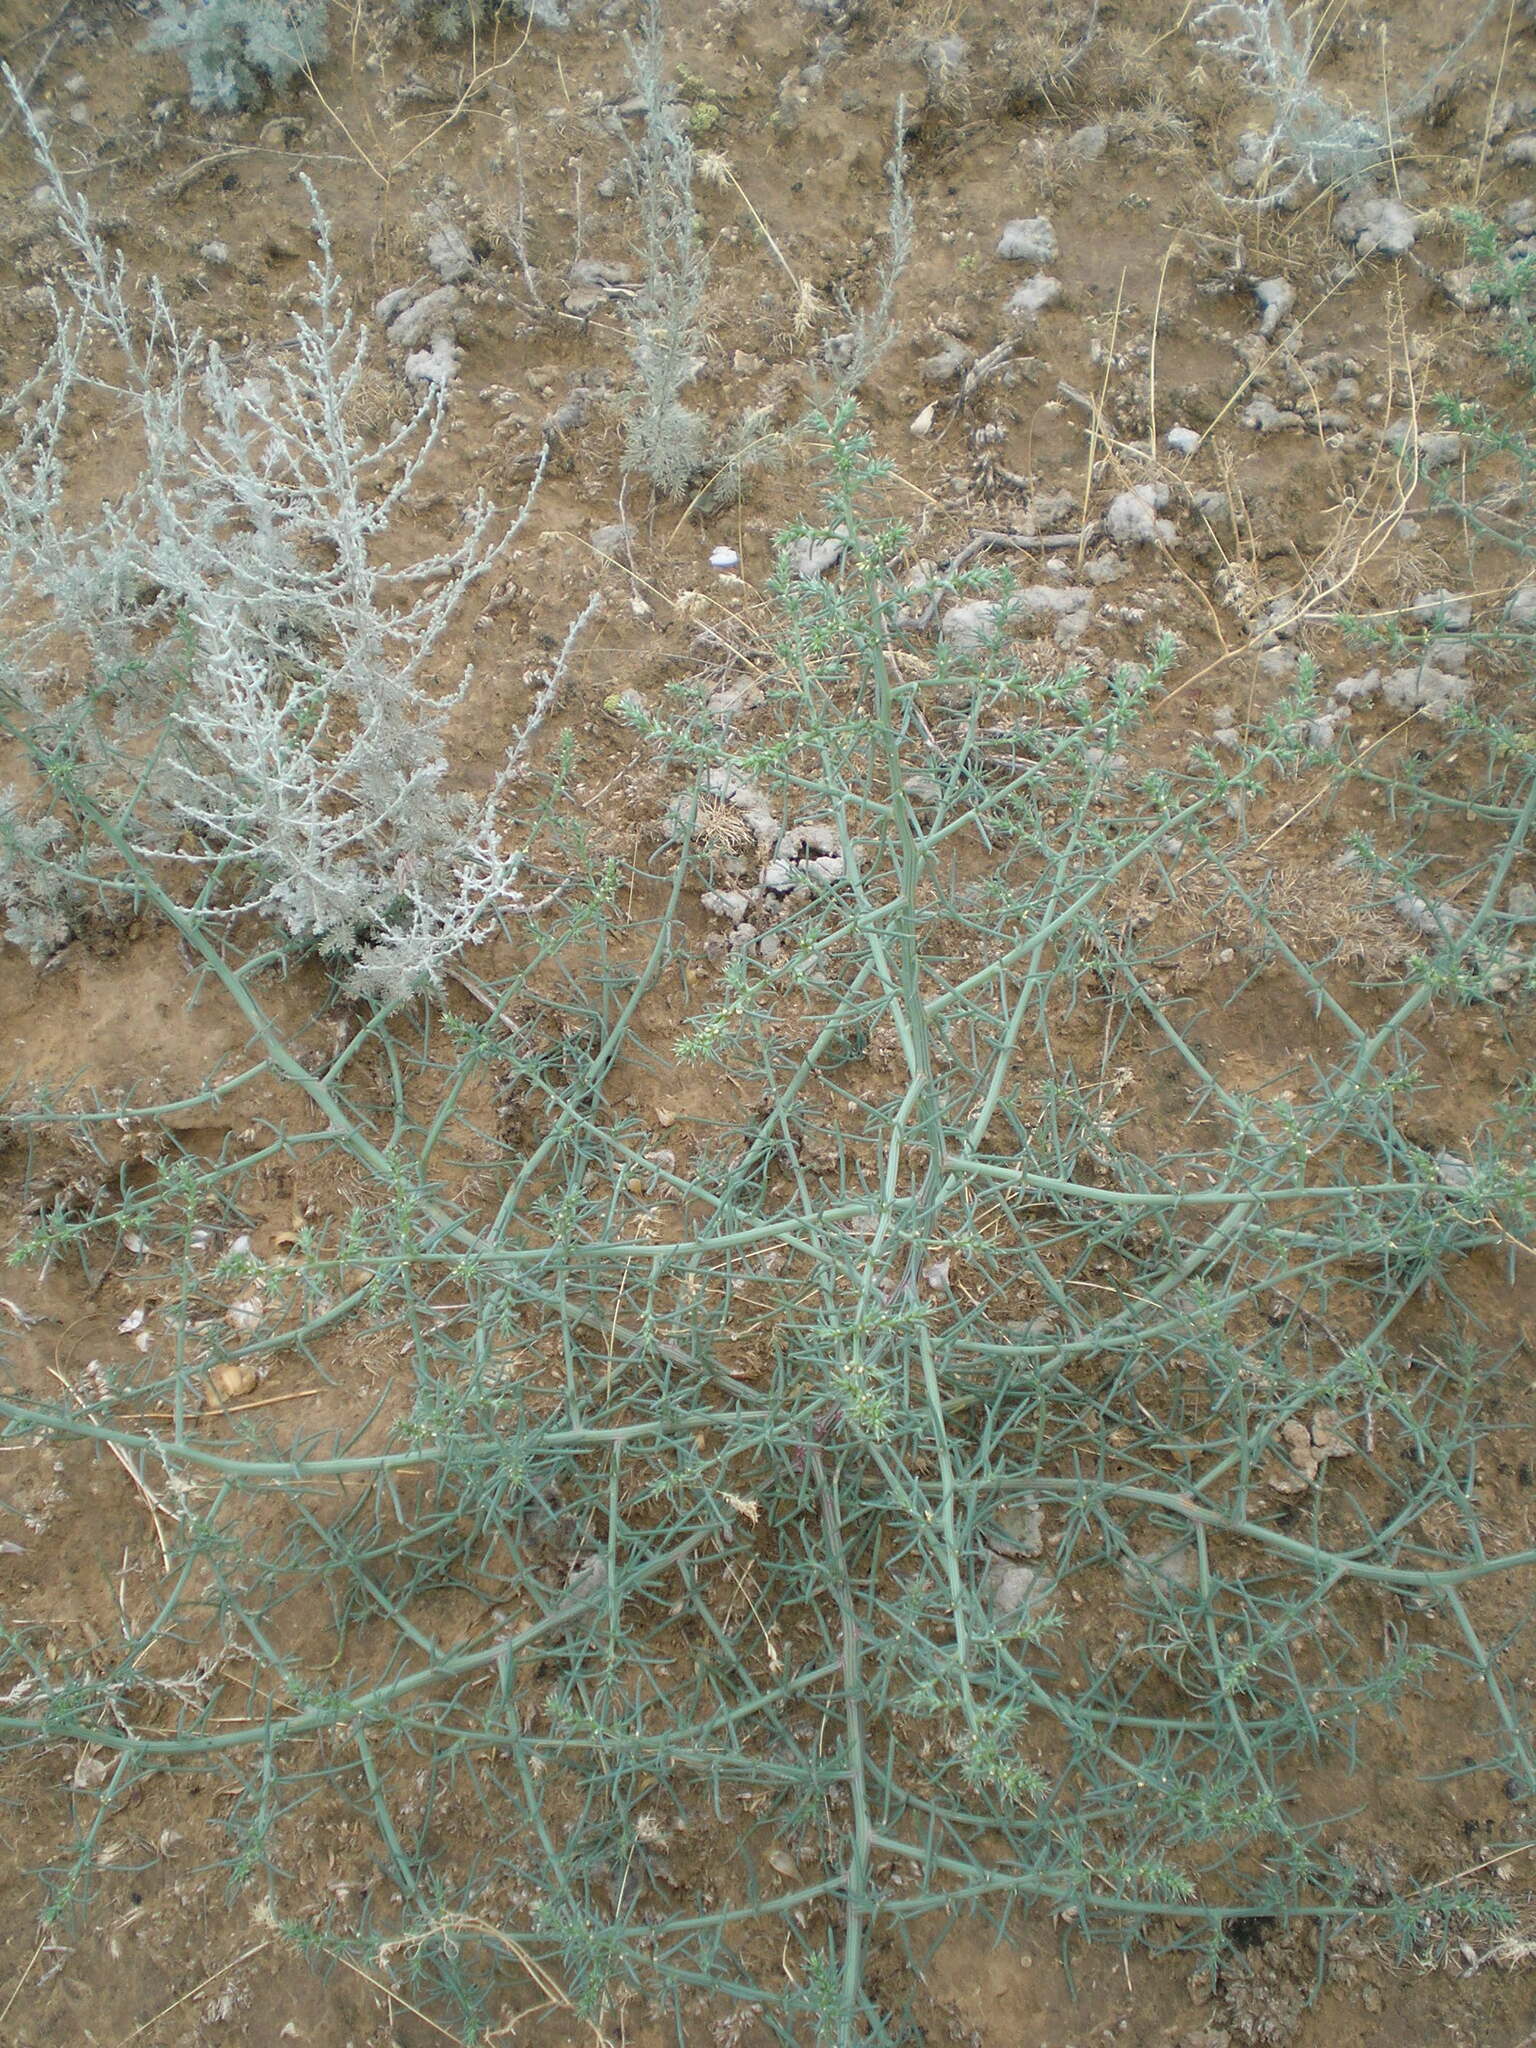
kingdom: Plantae
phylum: Tracheophyta
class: Magnoliopsida
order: Caryophyllales
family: Amaranthaceae
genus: Salsola
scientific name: Salsola tragus
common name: Prickly russian thistle
